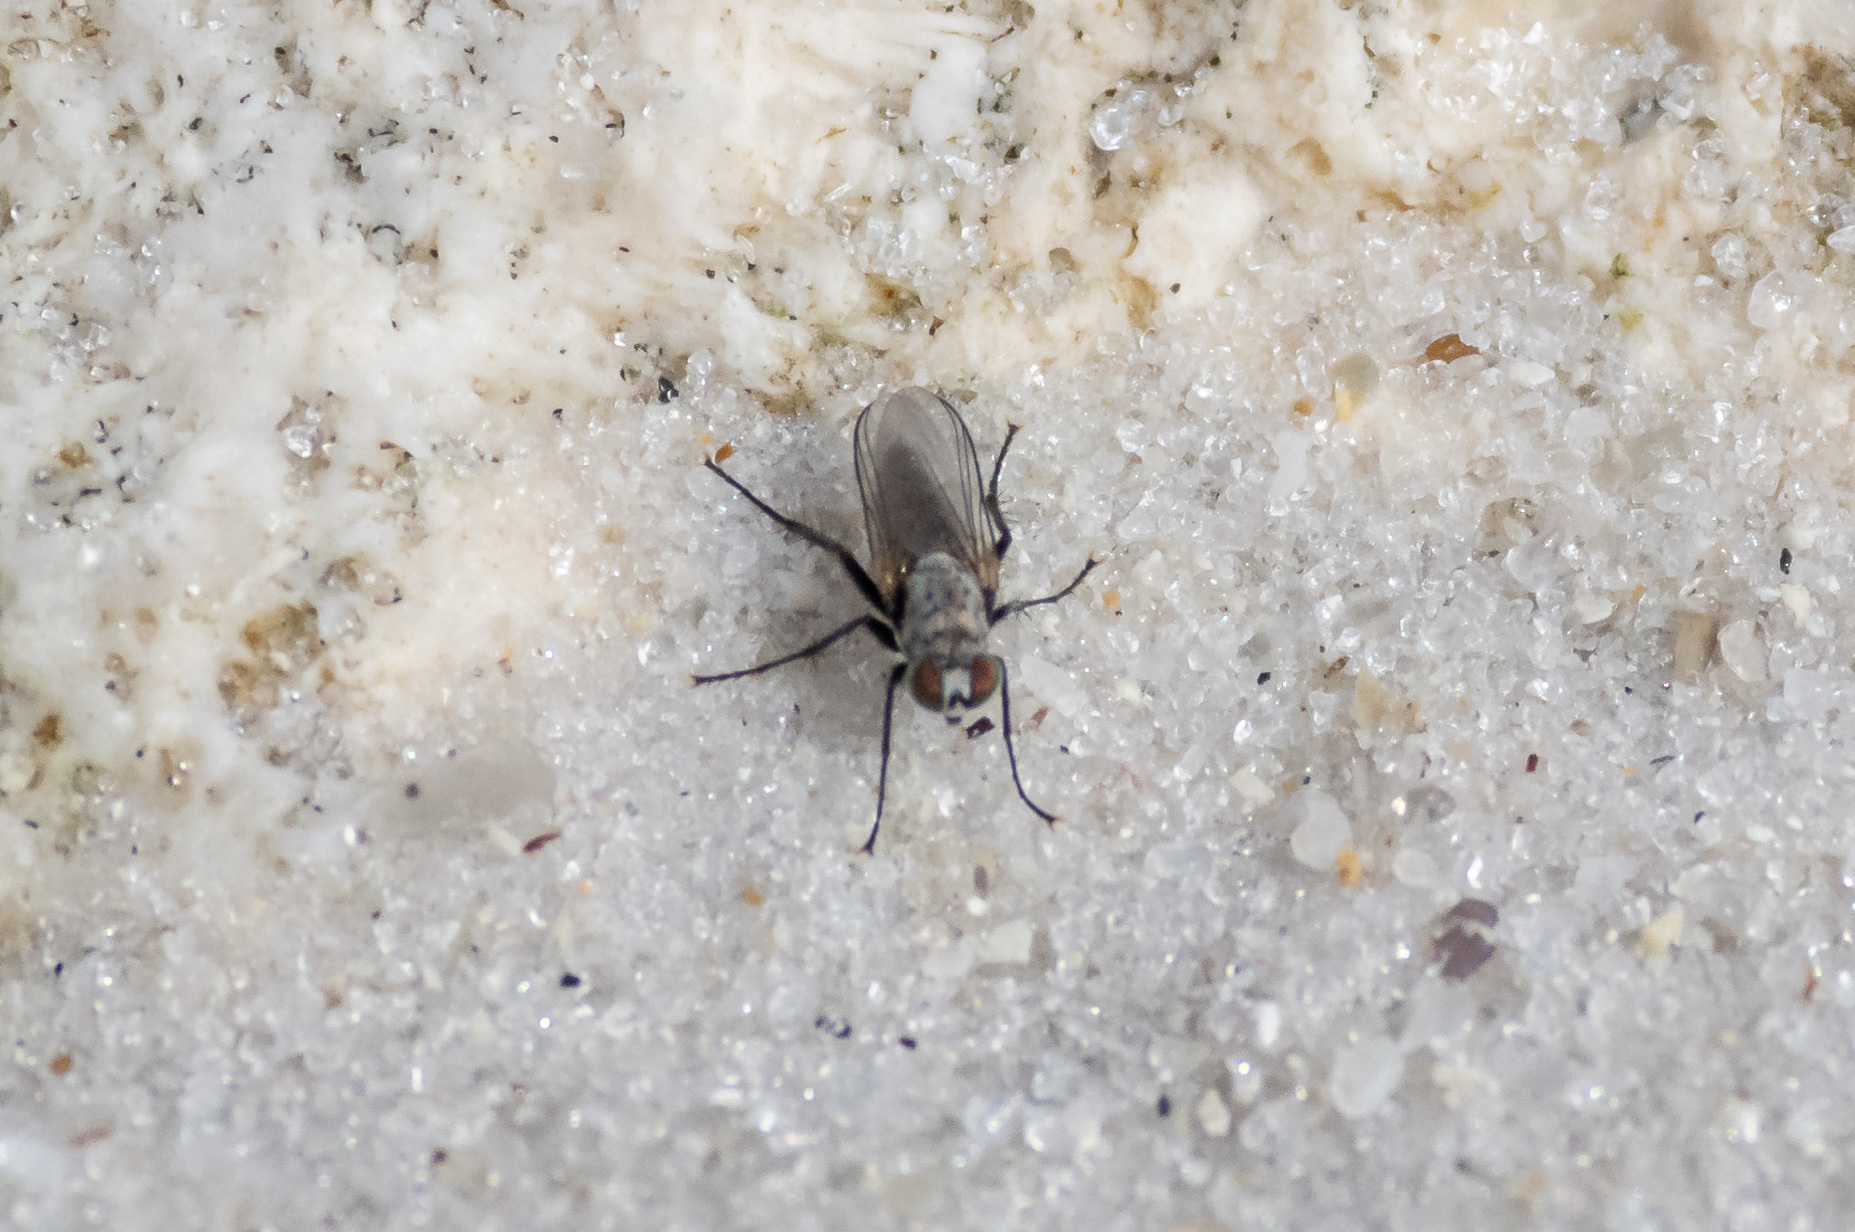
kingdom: Animalia
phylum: Arthropoda
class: Insecta
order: Diptera
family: Dolichopodidae
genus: Asyndetus
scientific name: Asyndetus interruptus
